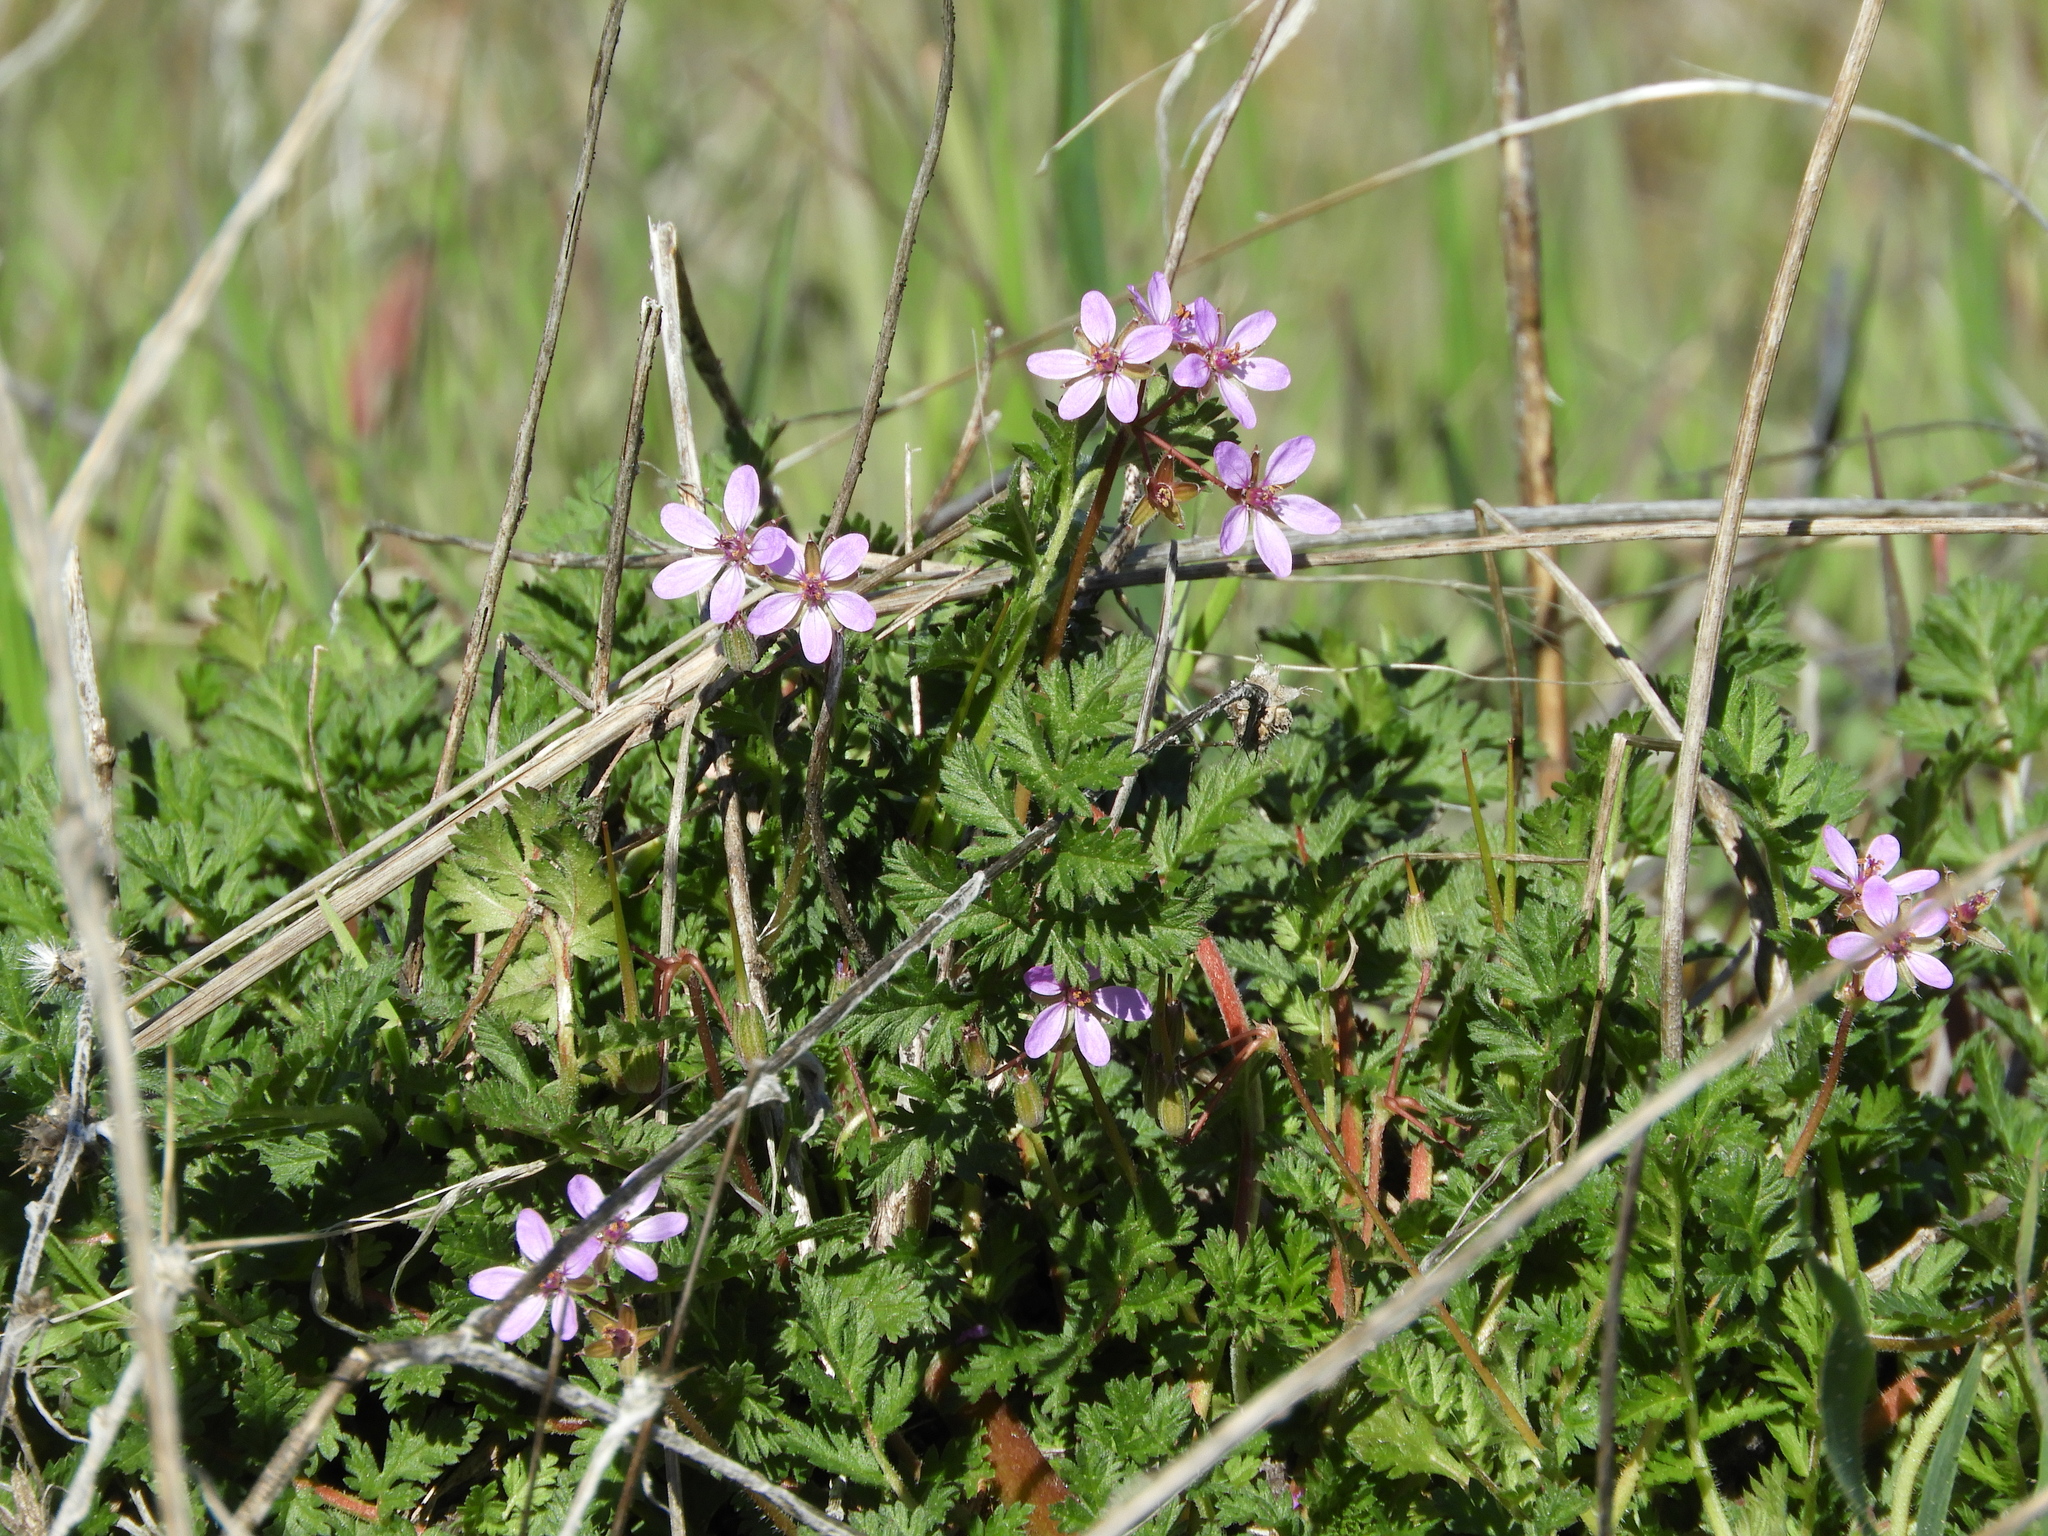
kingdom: Plantae
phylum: Tracheophyta
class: Magnoliopsida
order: Geraniales
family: Geraniaceae
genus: Erodium
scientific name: Erodium cicutarium
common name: Common stork's-bill
